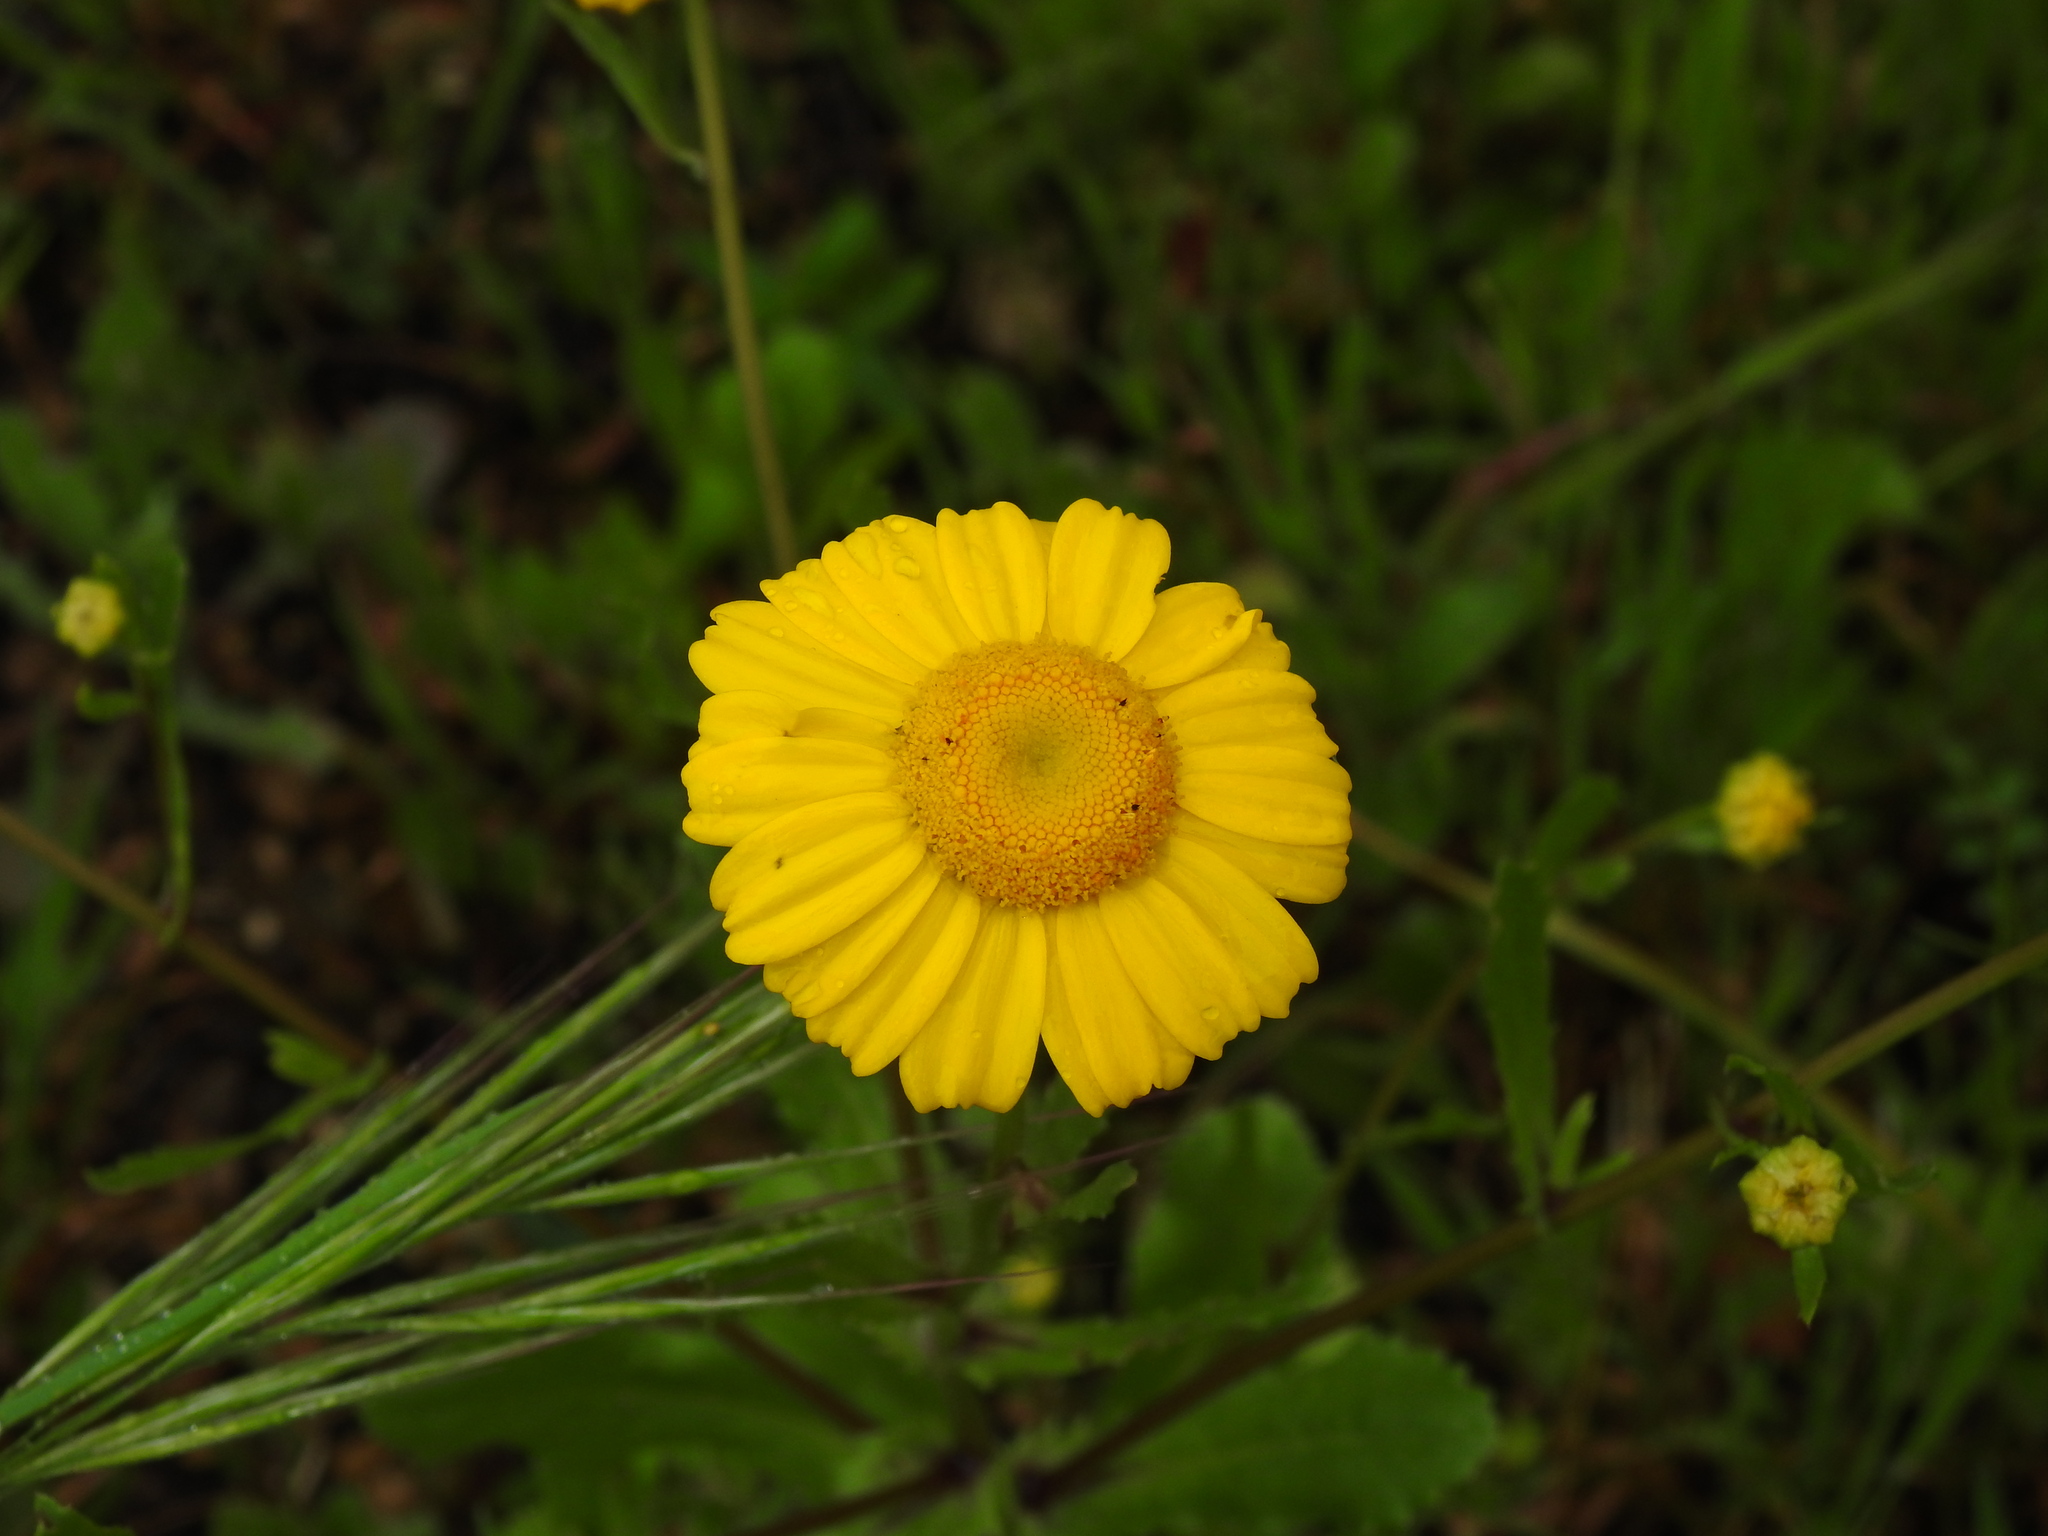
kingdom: Plantae
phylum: Tracheophyta
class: Magnoliopsida
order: Asterales
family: Asteraceae
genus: Coleostephus
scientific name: Coleostephus myconis
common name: Mediterranean marigold
